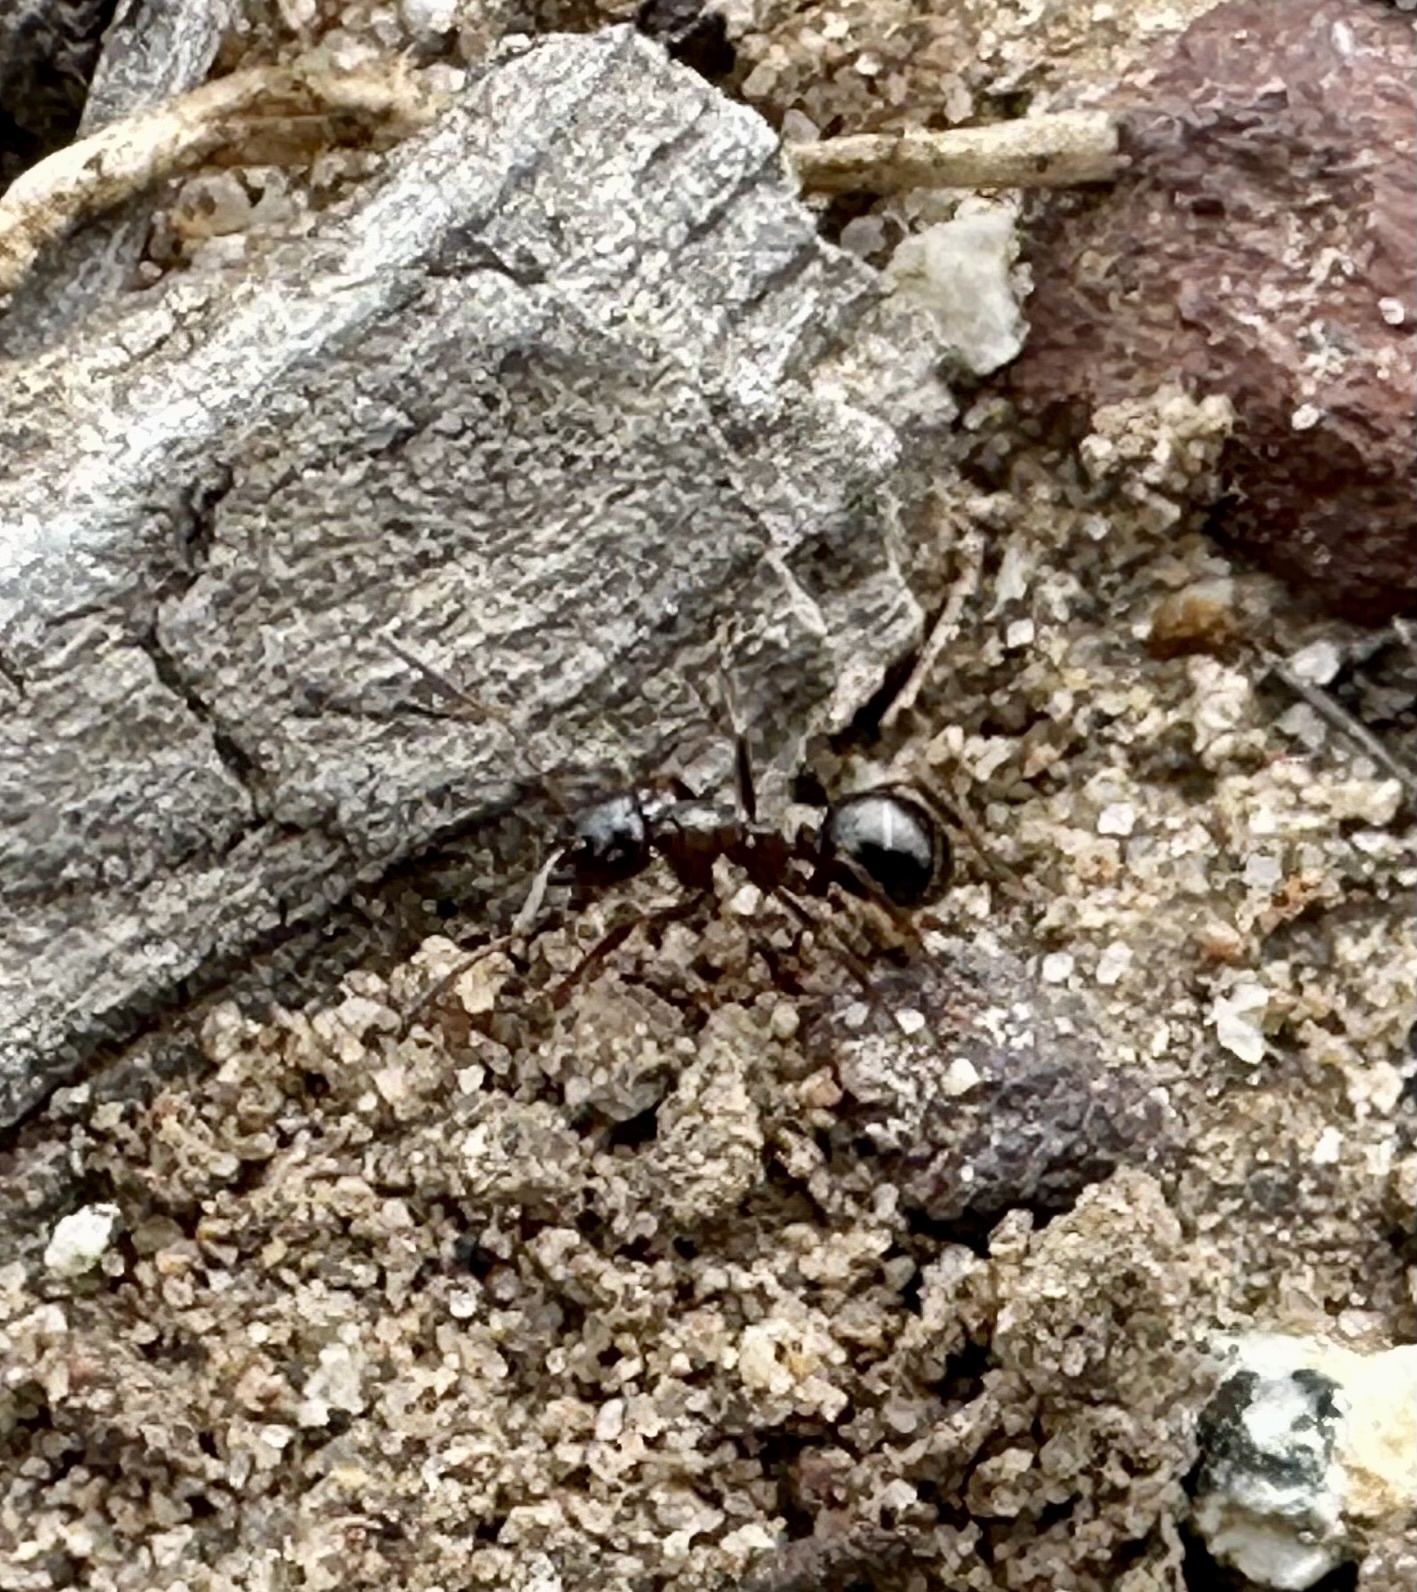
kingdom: Animalia
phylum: Arthropoda
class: Insecta
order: Hymenoptera
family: Formicidae
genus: Formica
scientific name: Formica subpolita
